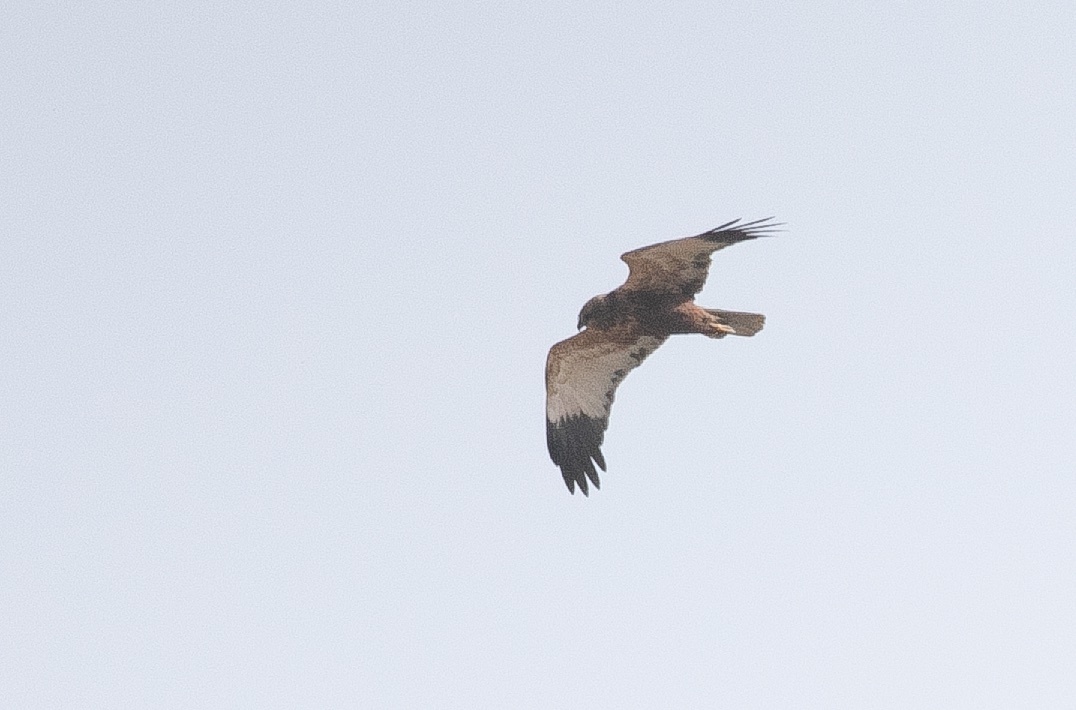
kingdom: Animalia
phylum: Chordata
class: Aves
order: Accipitriformes
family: Accipitridae
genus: Circus
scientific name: Circus aeruginosus
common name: Western marsh harrier
